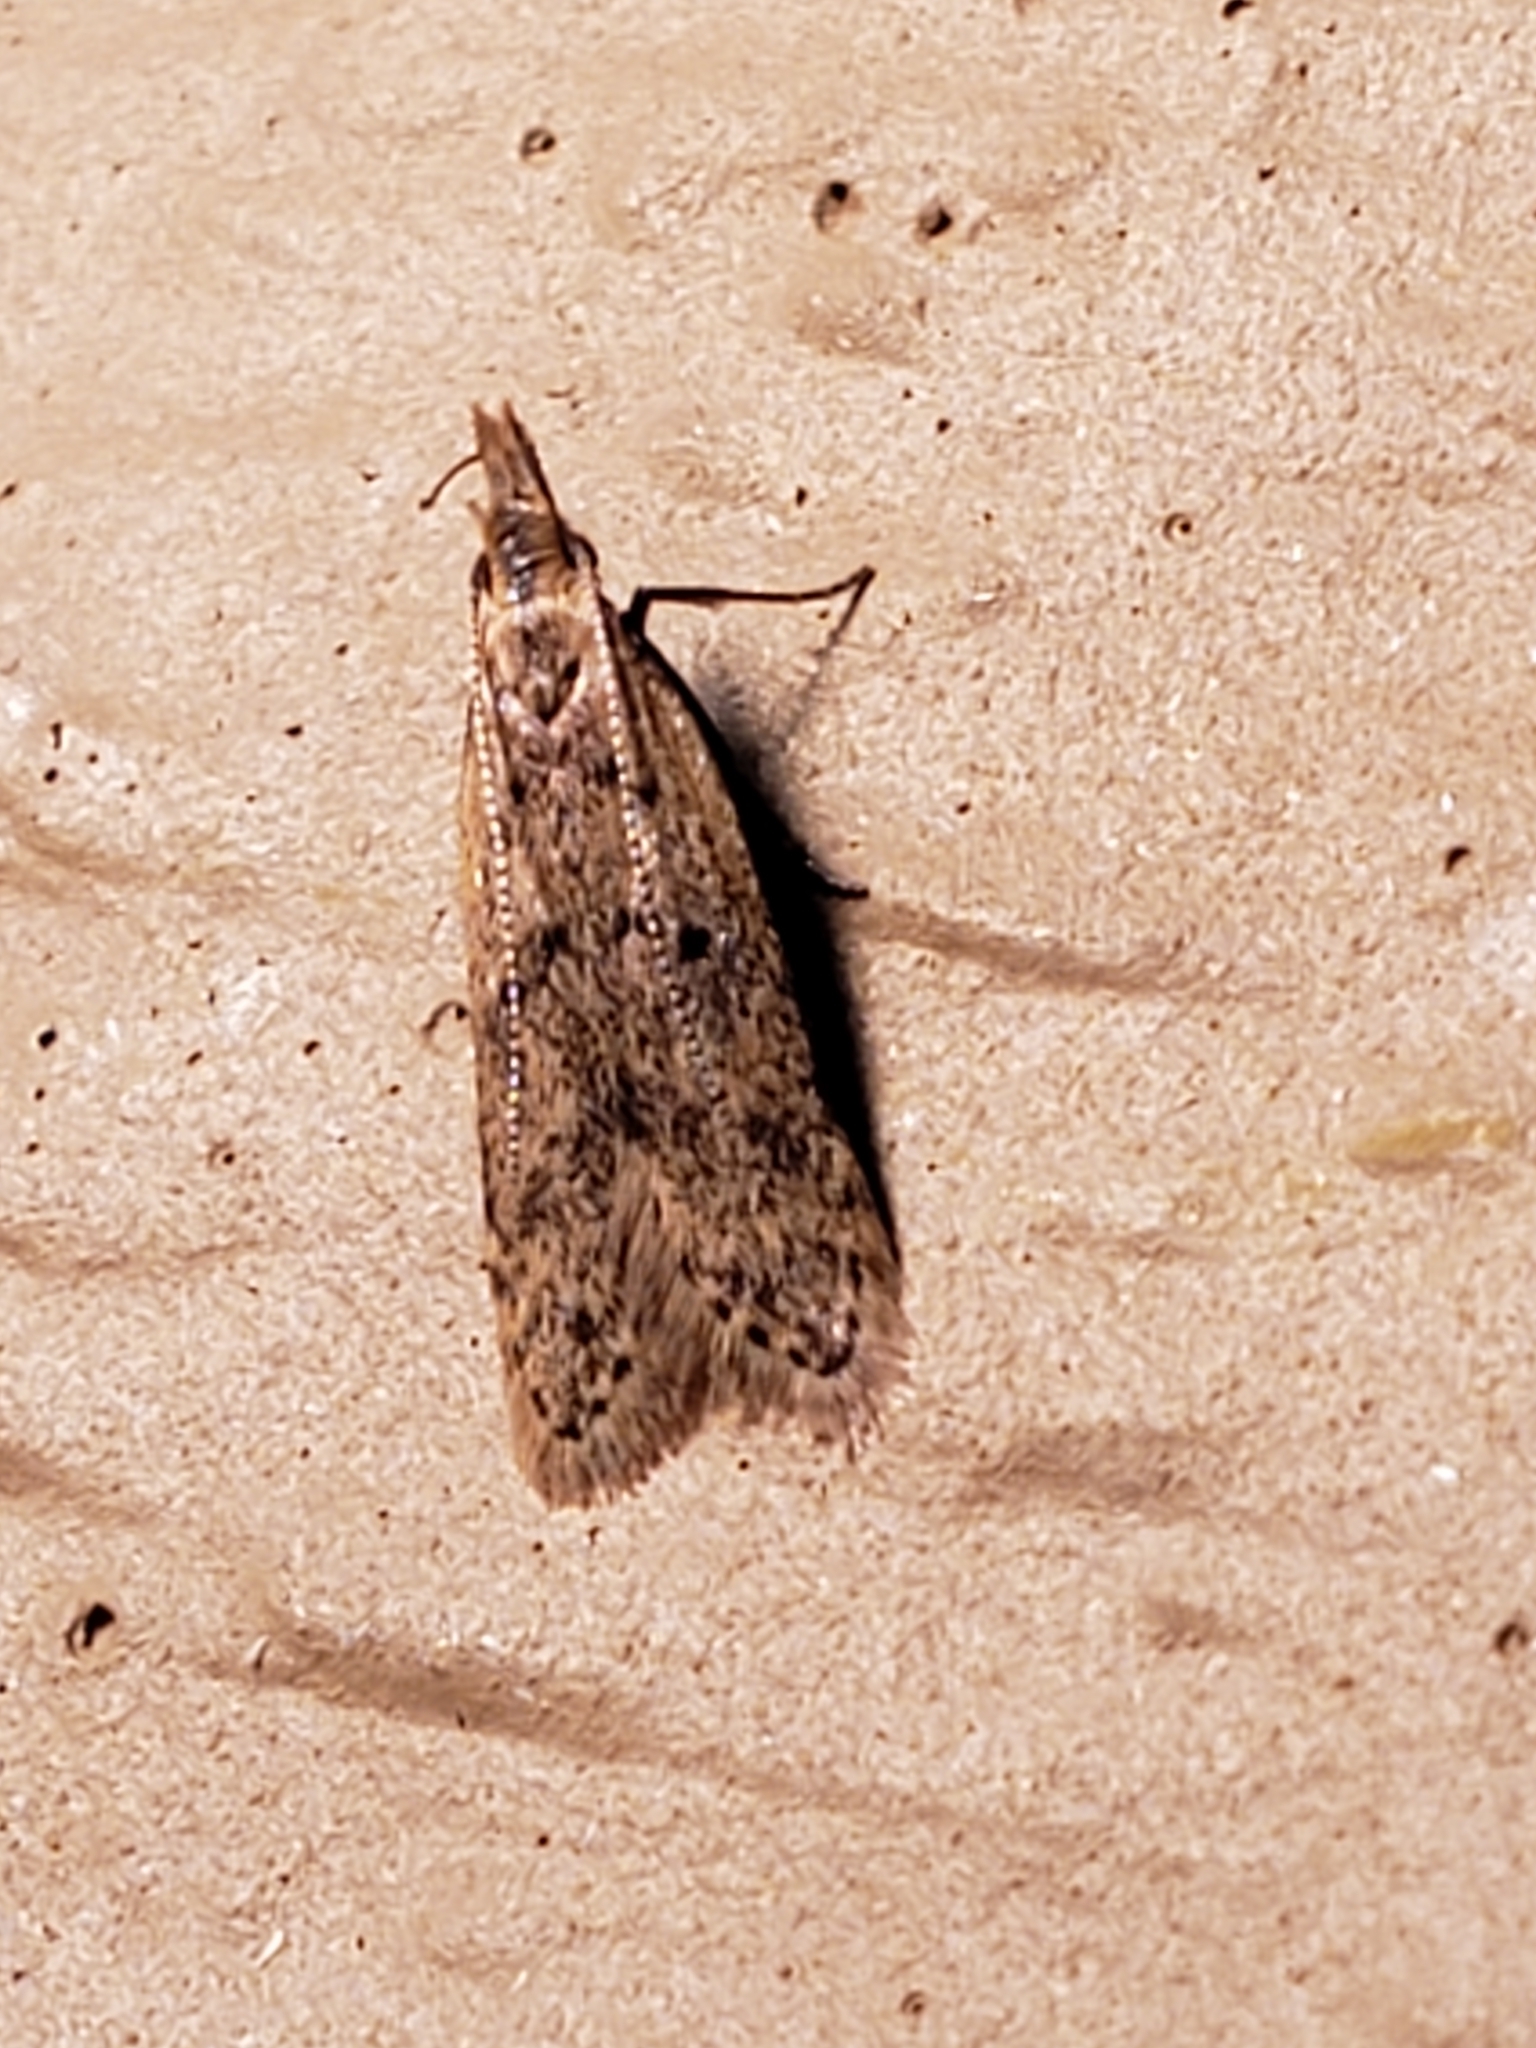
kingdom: Animalia
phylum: Arthropoda
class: Insecta
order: Lepidoptera
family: Gelechiidae
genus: Dichomeris
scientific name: Dichomeris punctipennella
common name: Many-spotted dichomeris moth
